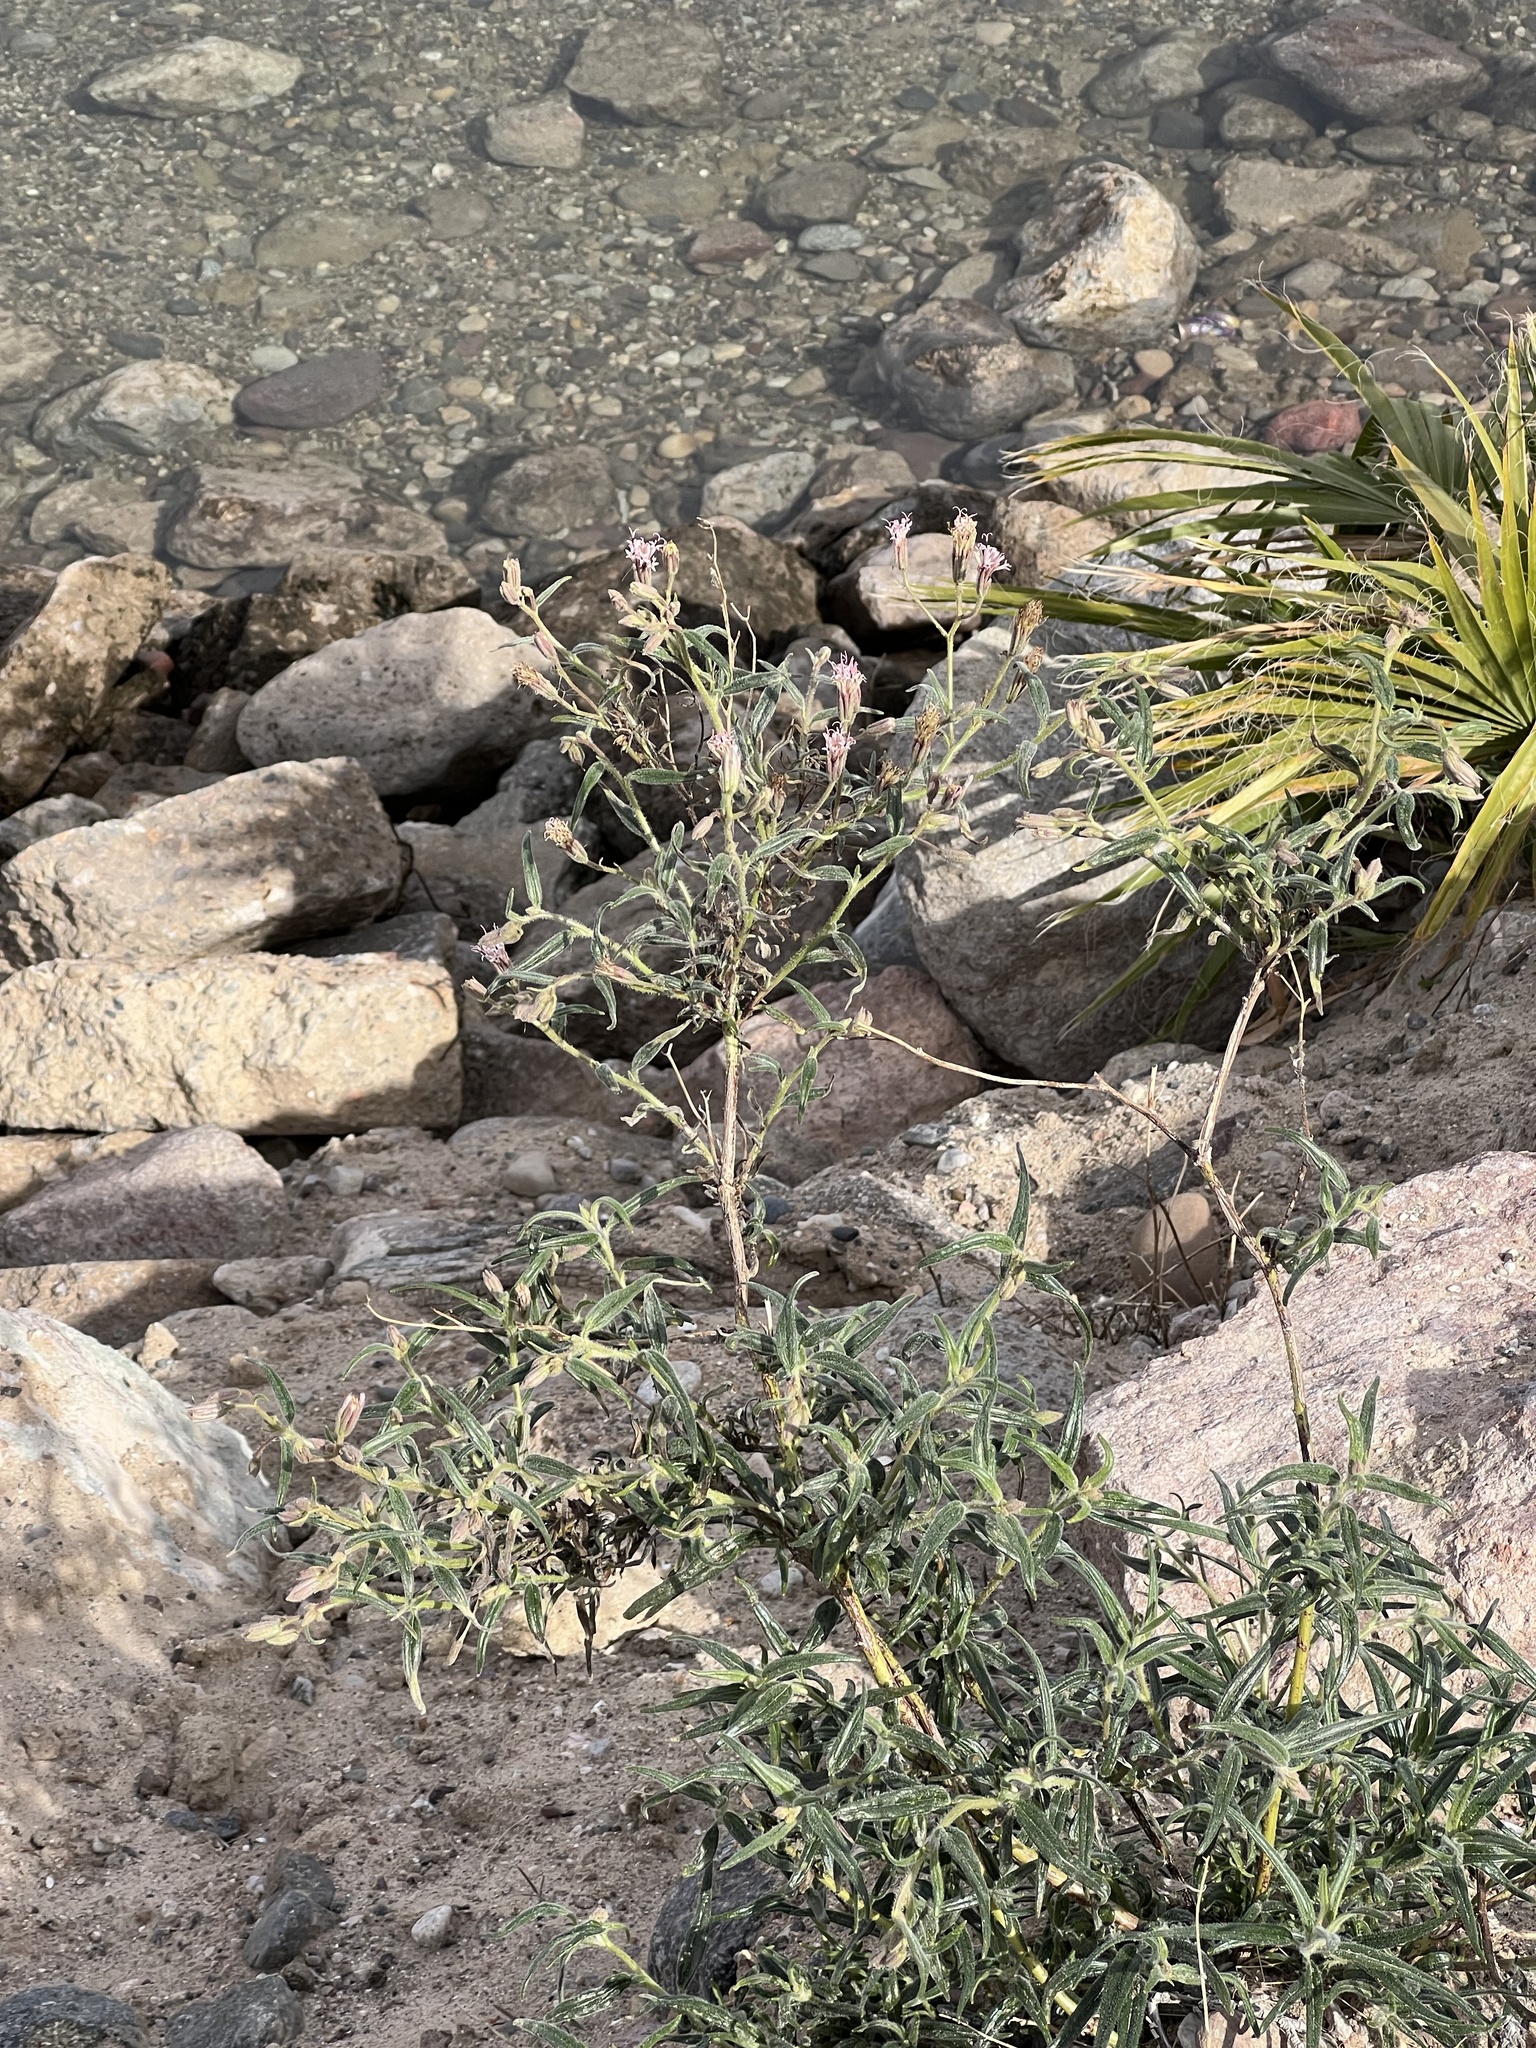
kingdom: Plantae
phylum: Tracheophyta
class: Magnoliopsida
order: Asterales
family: Asteraceae
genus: Palafoxia
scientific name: Palafoxia arida
